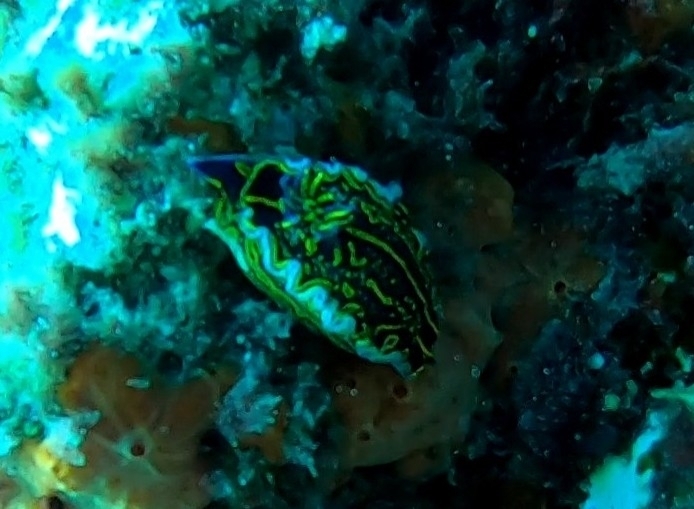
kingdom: Animalia
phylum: Mollusca
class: Gastropoda
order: Nudibranchia
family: Chromodorididae
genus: Felimare
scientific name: Felimare picta
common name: Giant doris
